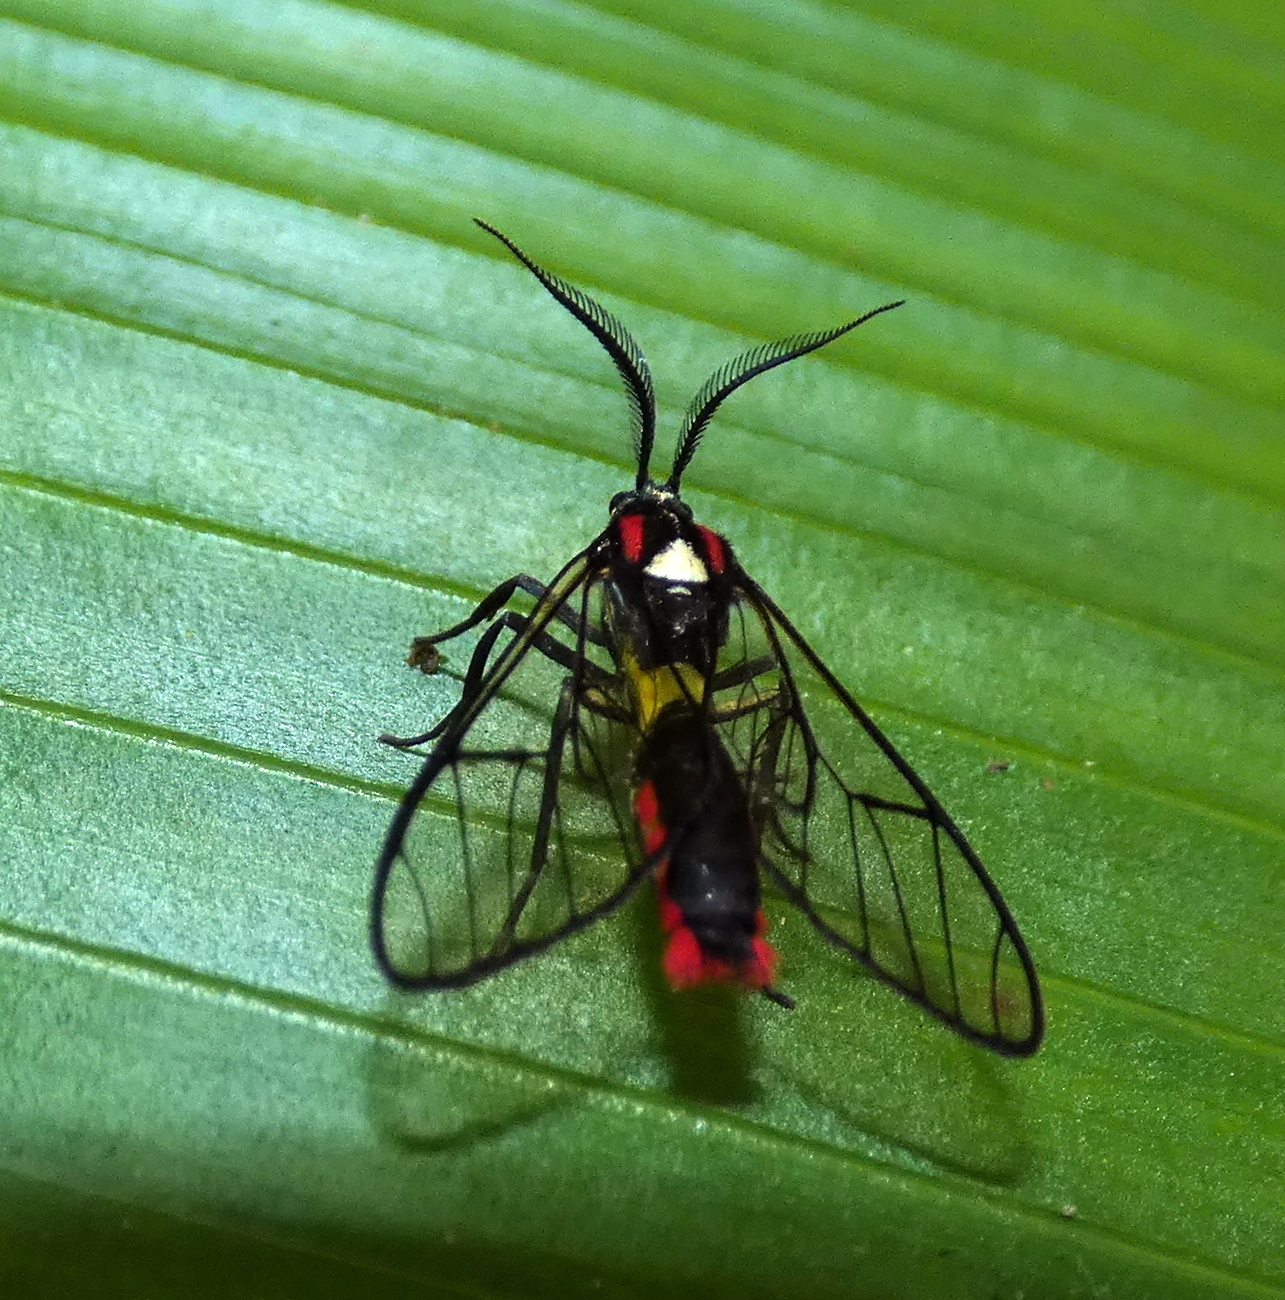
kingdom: Animalia
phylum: Arthropoda
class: Insecta
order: Lepidoptera
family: Erebidae
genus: Argyroeides
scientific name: Argyroeides braco
